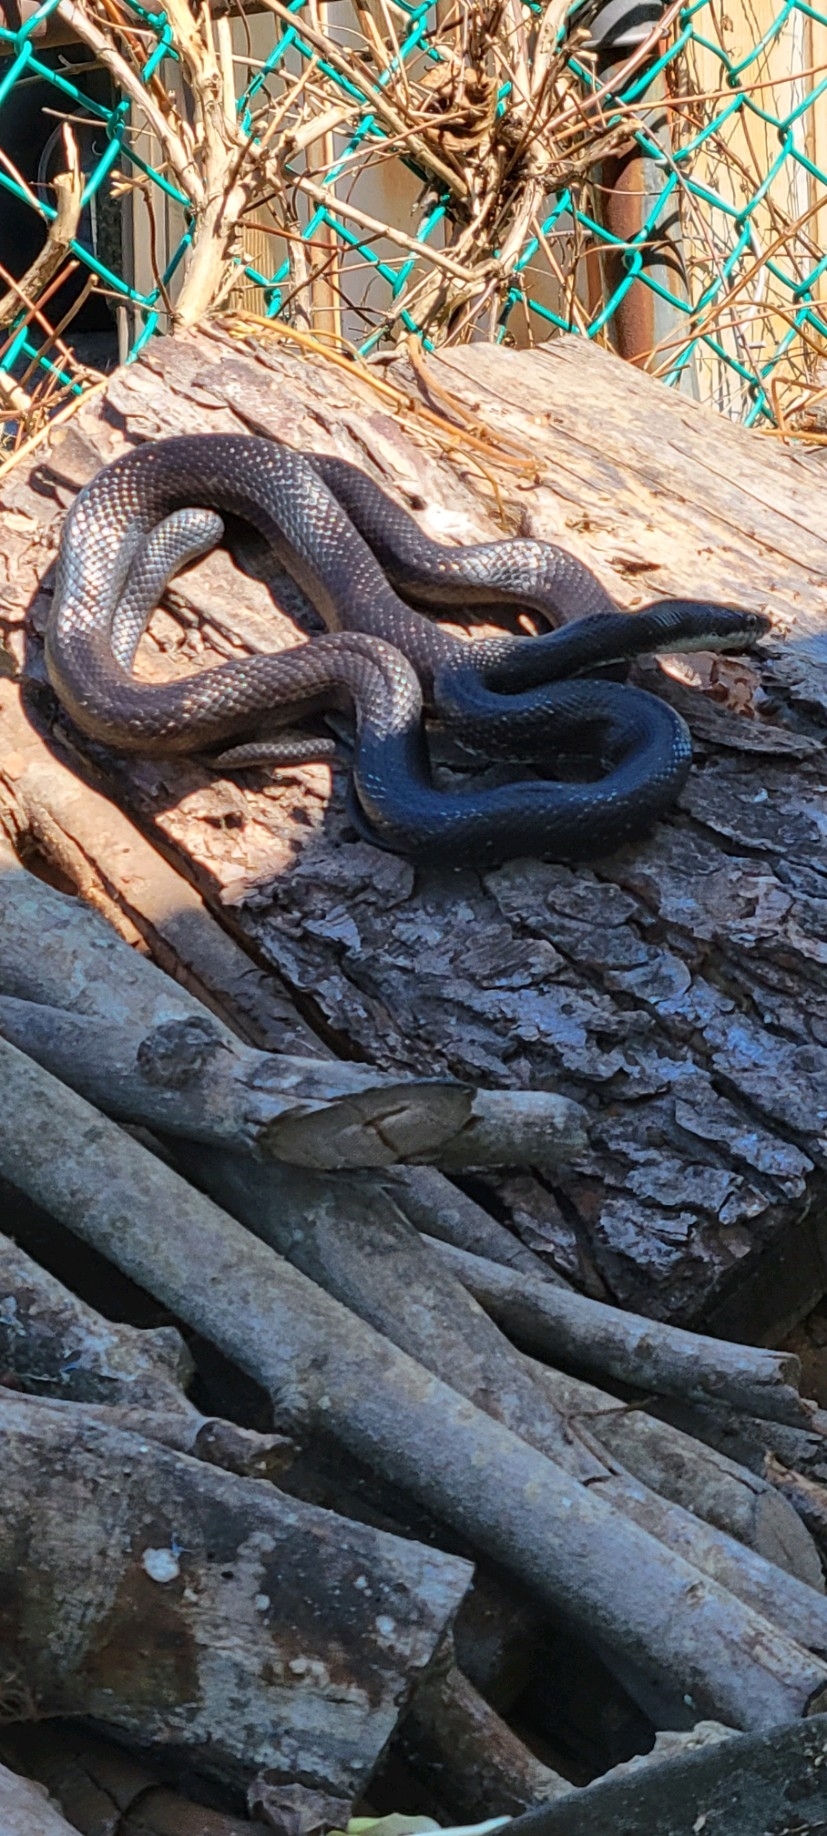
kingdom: Animalia
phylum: Chordata
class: Squamata
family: Colubridae
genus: Pantherophis
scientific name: Pantherophis alleghaniensis
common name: Eastern rat snake
